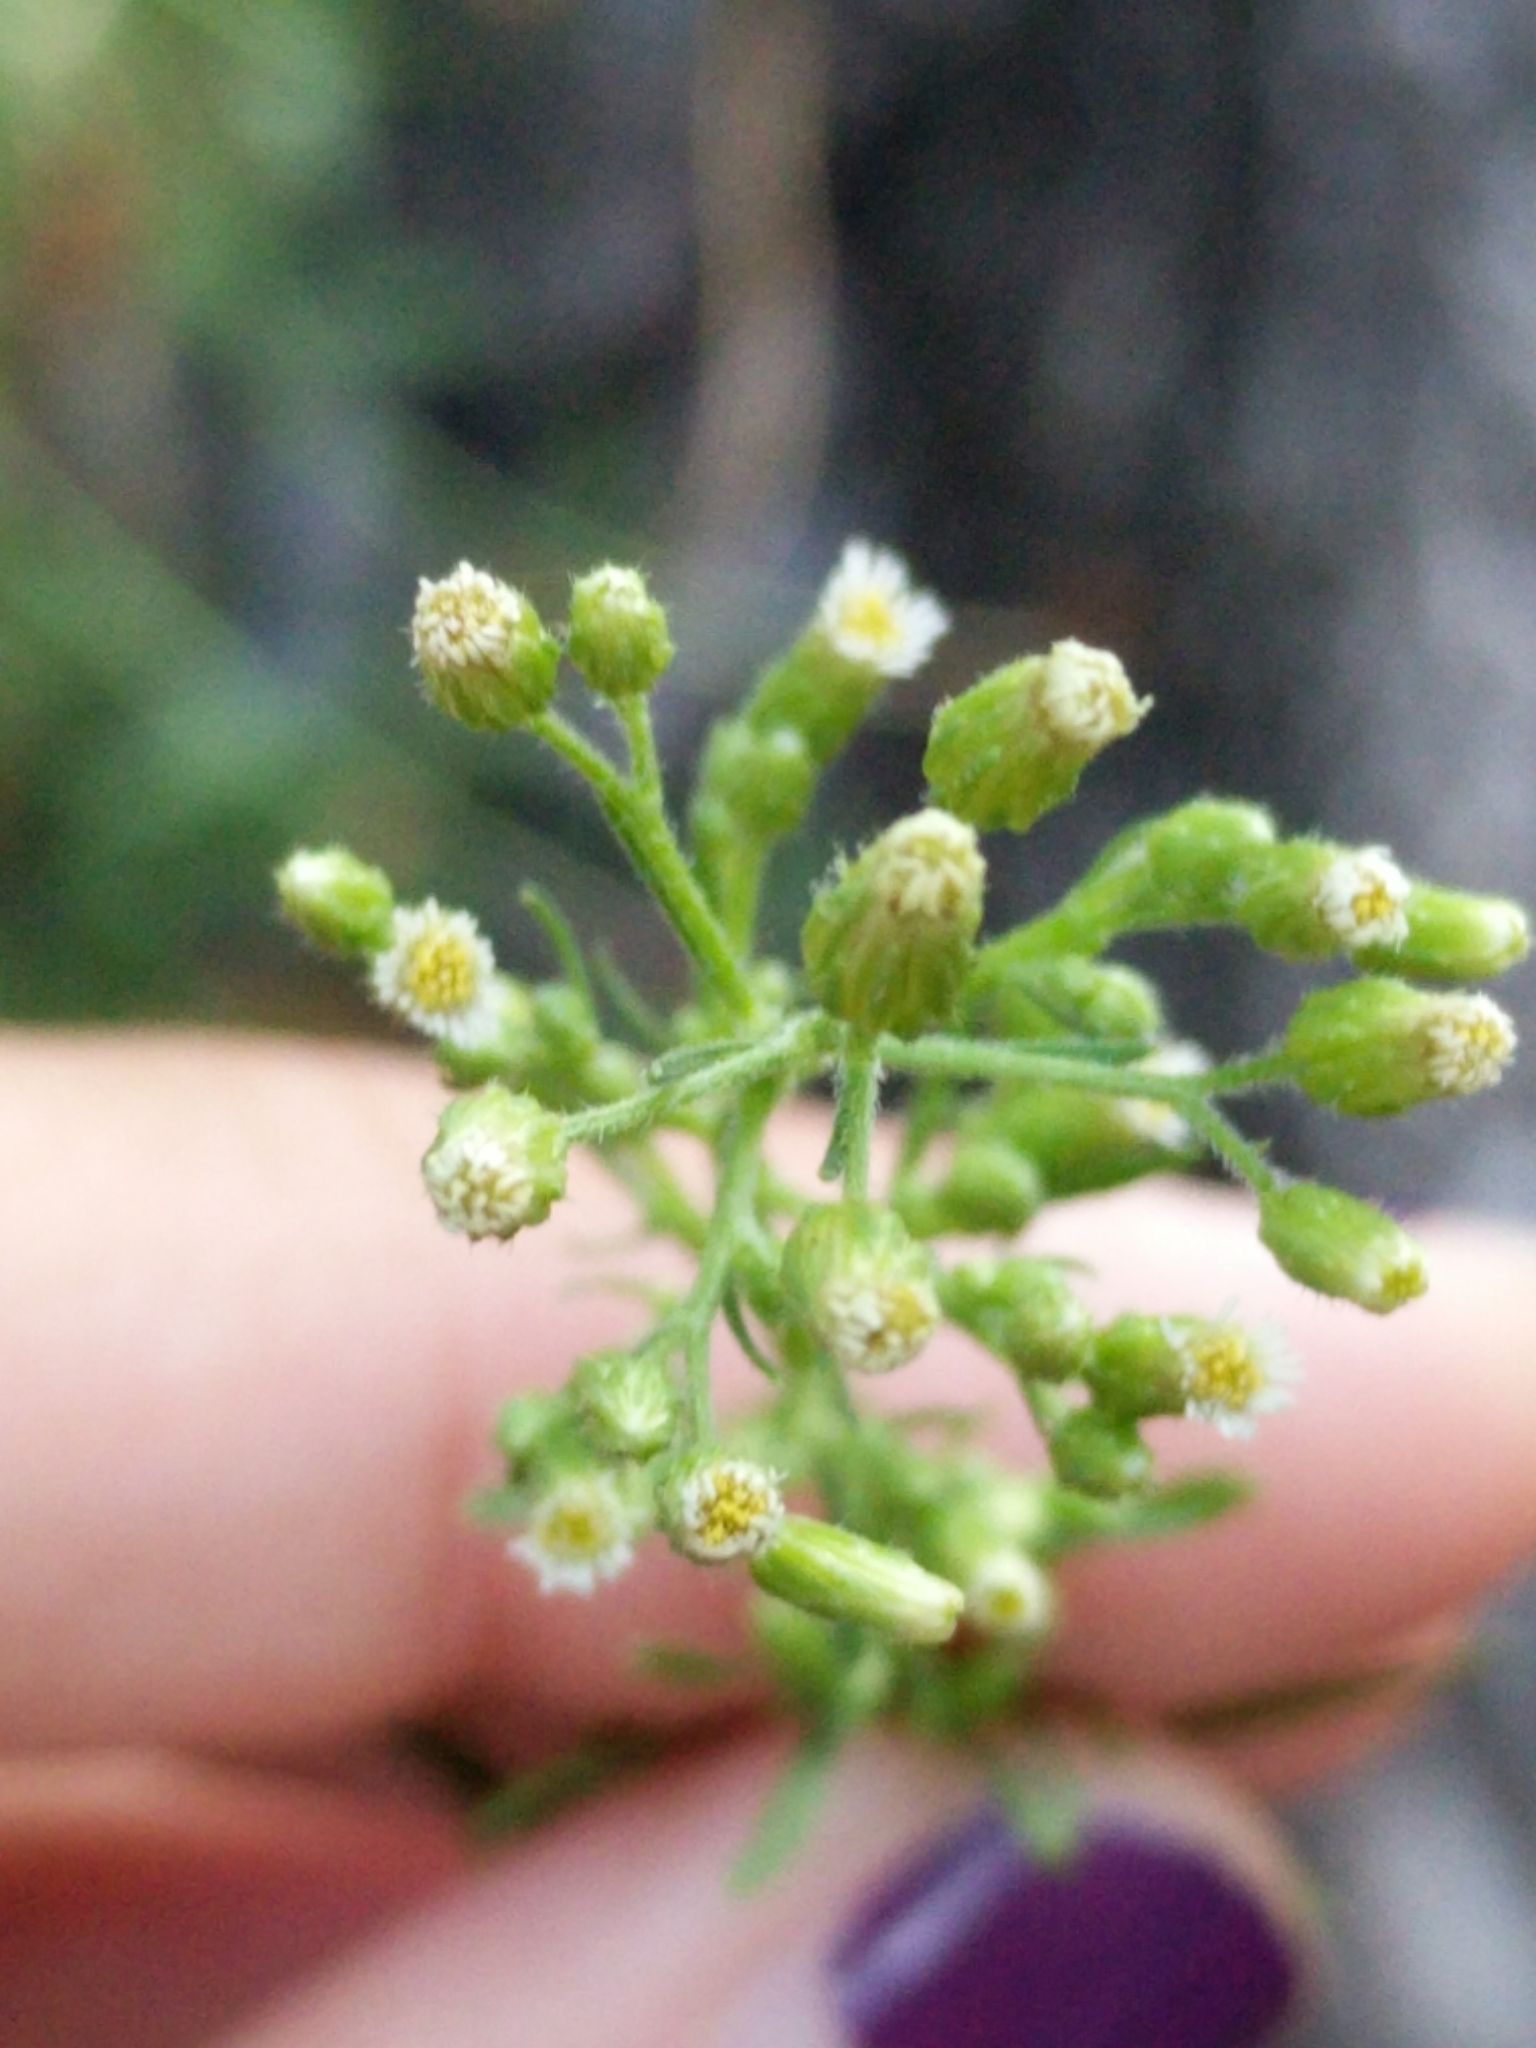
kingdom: Plantae
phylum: Tracheophyta
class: Magnoliopsida
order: Asterales
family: Asteraceae
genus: Erigeron
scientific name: Erigeron canadensis
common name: Canadian fleabane
